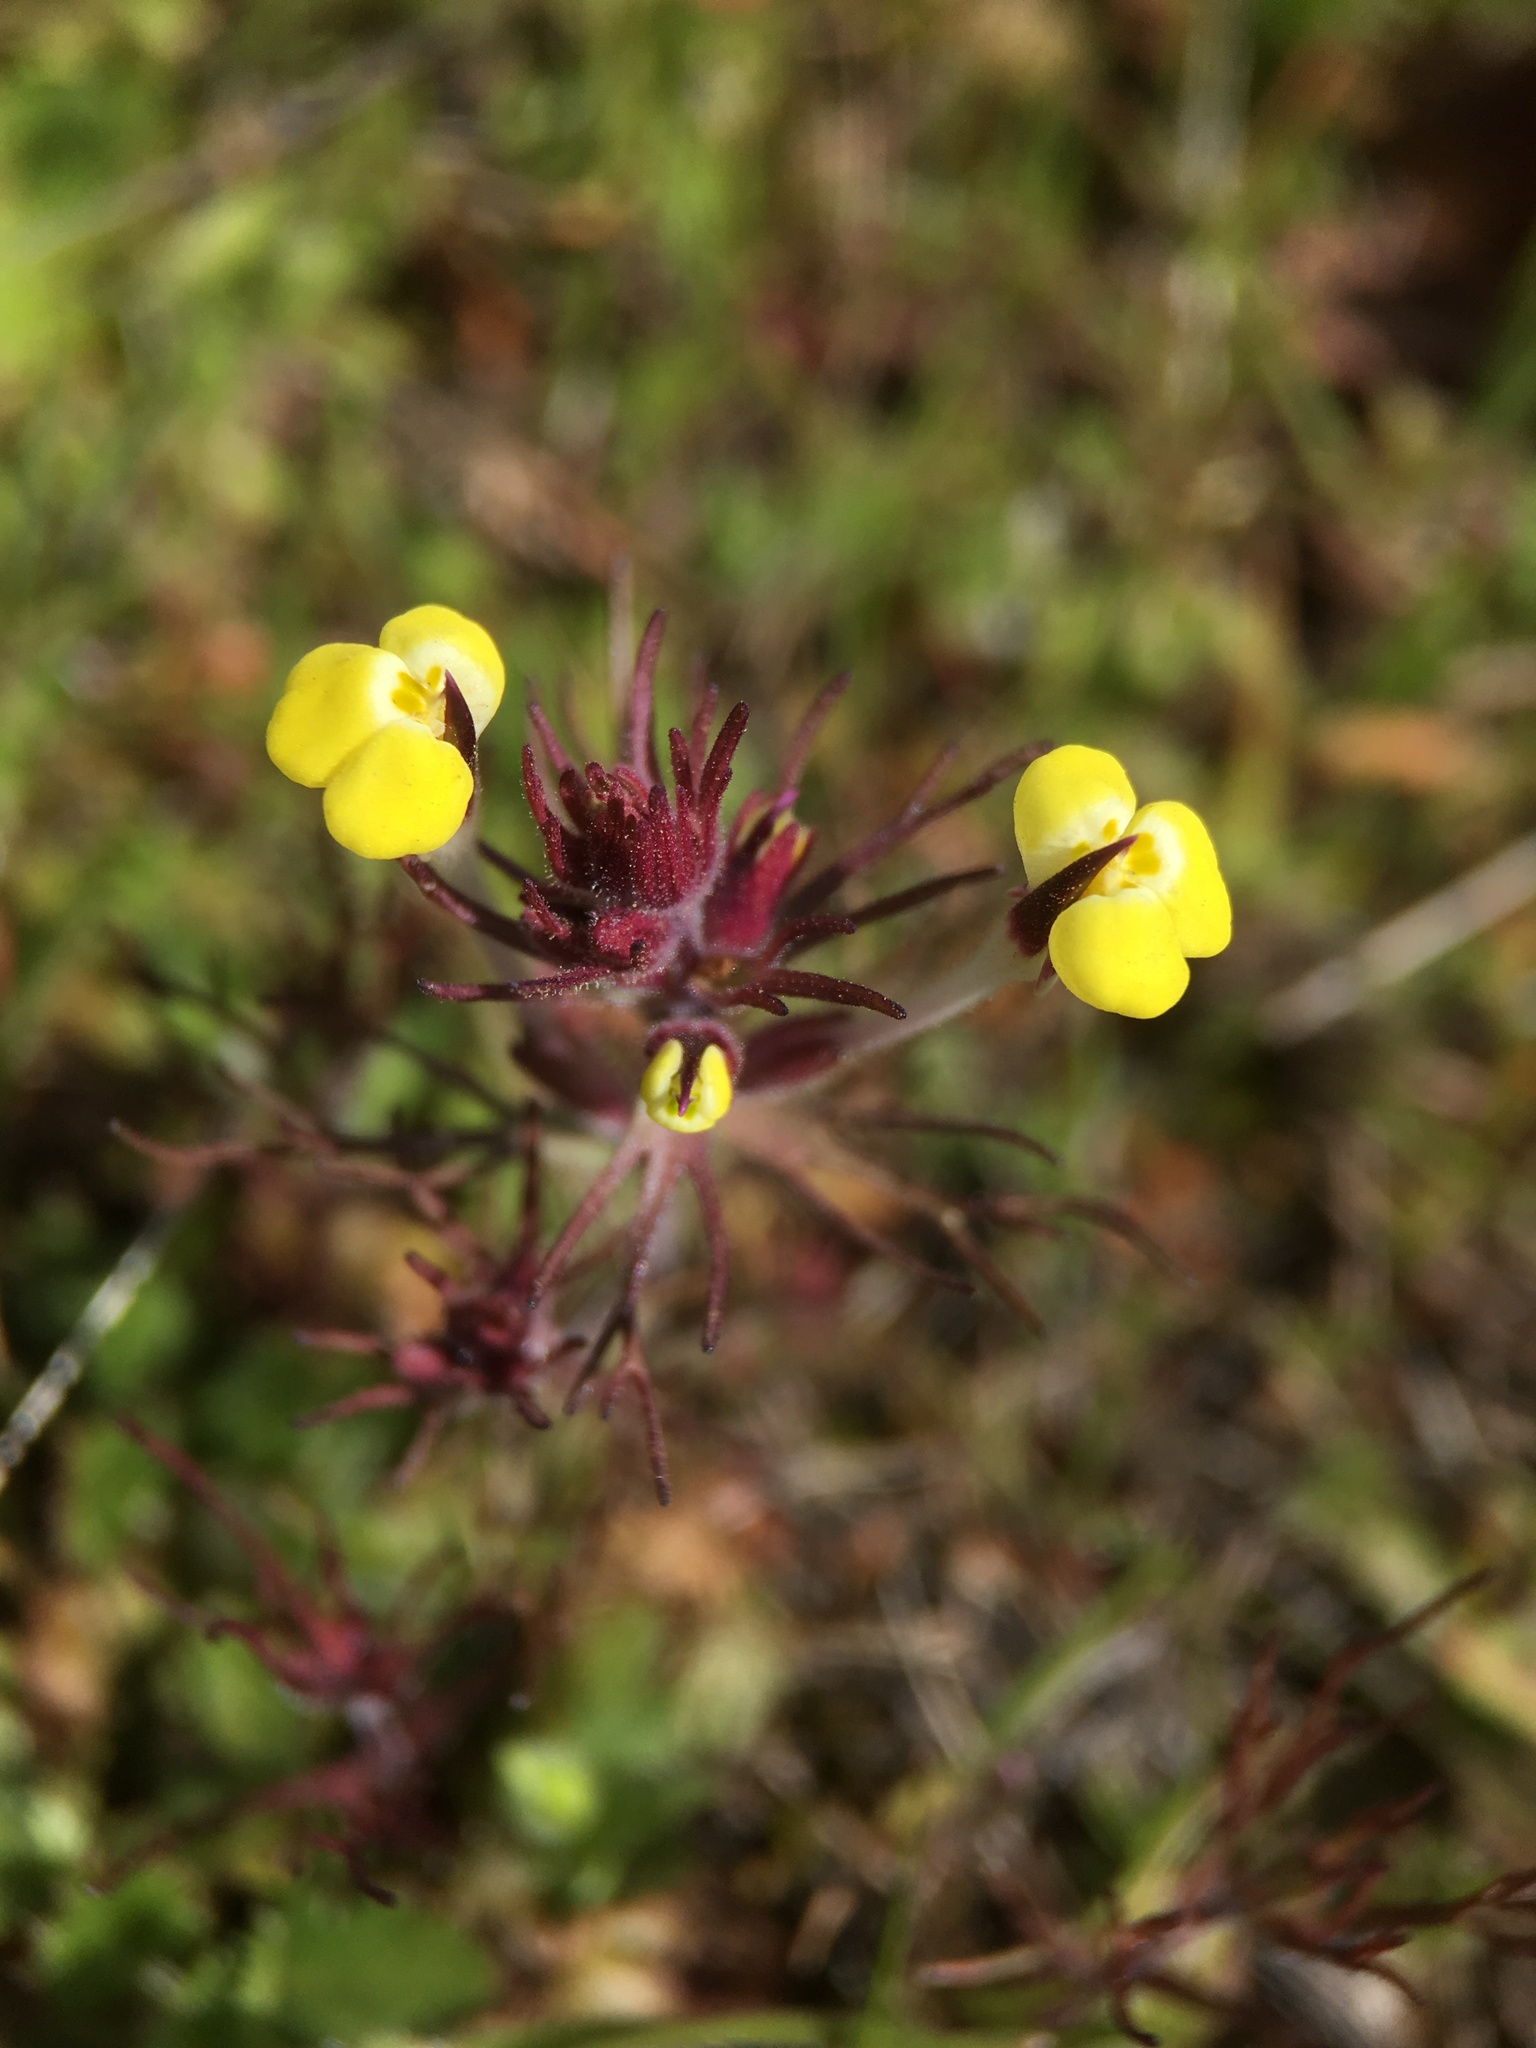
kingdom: Plantae
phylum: Tracheophyta
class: Magnoliopsida
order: Lamiales
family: Orobanchaceae
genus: Triphysaria
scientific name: Triphysaria eriantha
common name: Johnny-tuck
